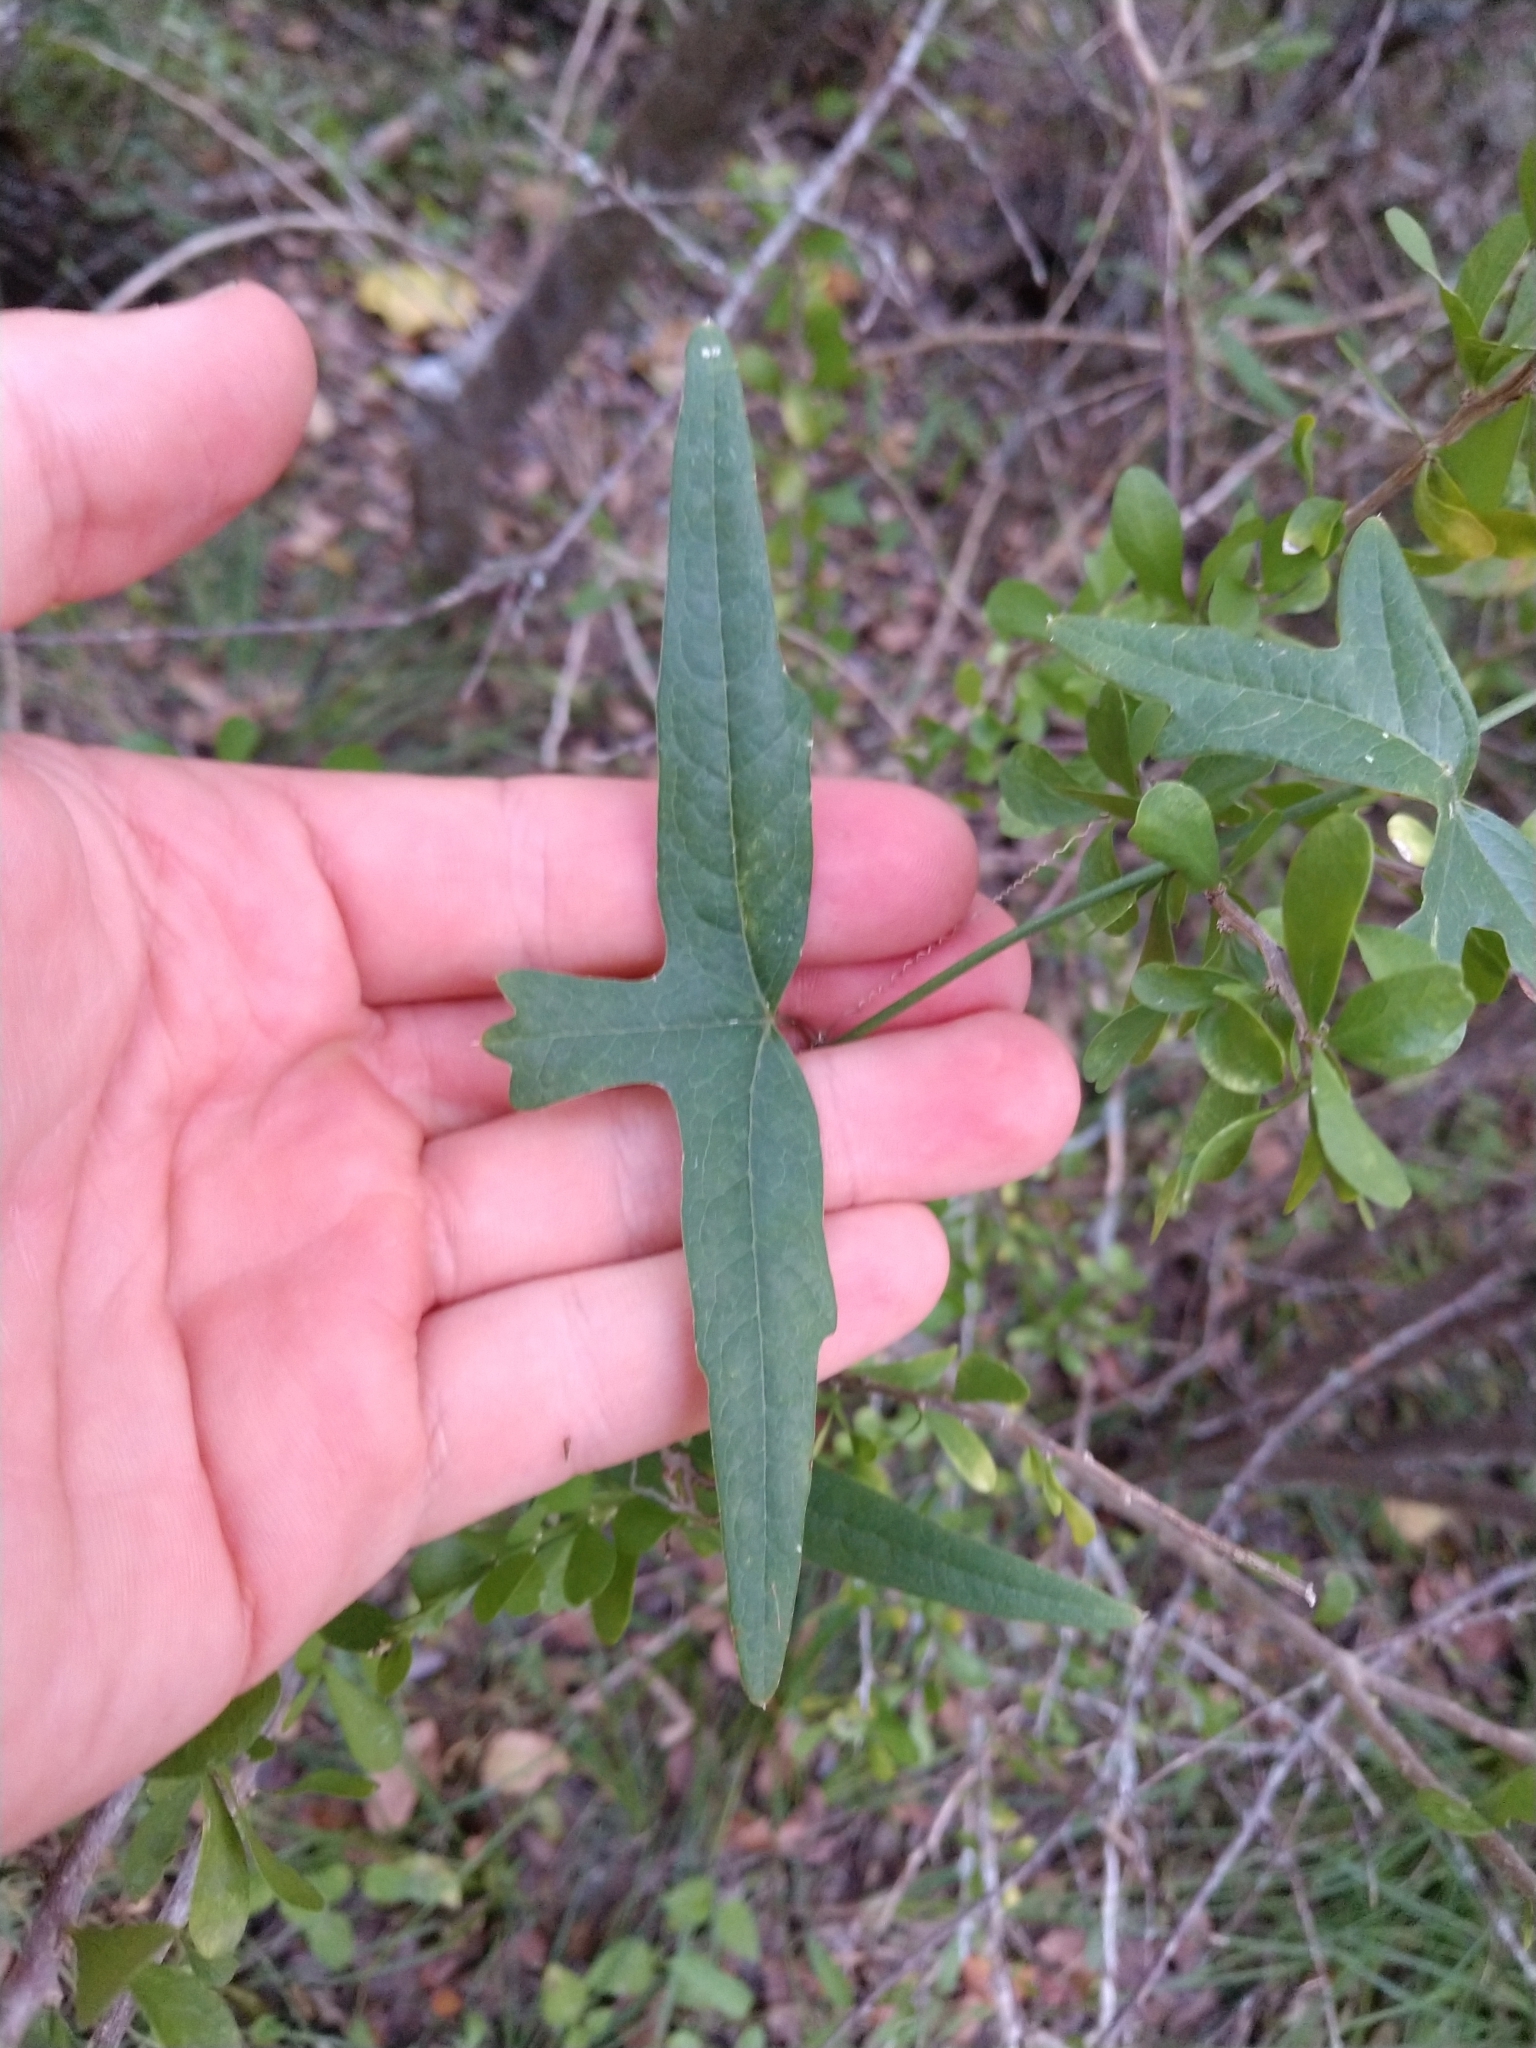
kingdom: Plantae
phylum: Tracheophyta
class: Magnoliopsida
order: Malpighiales
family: Passifloraceae
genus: Passiflora
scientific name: Passiflora tenuiloba
